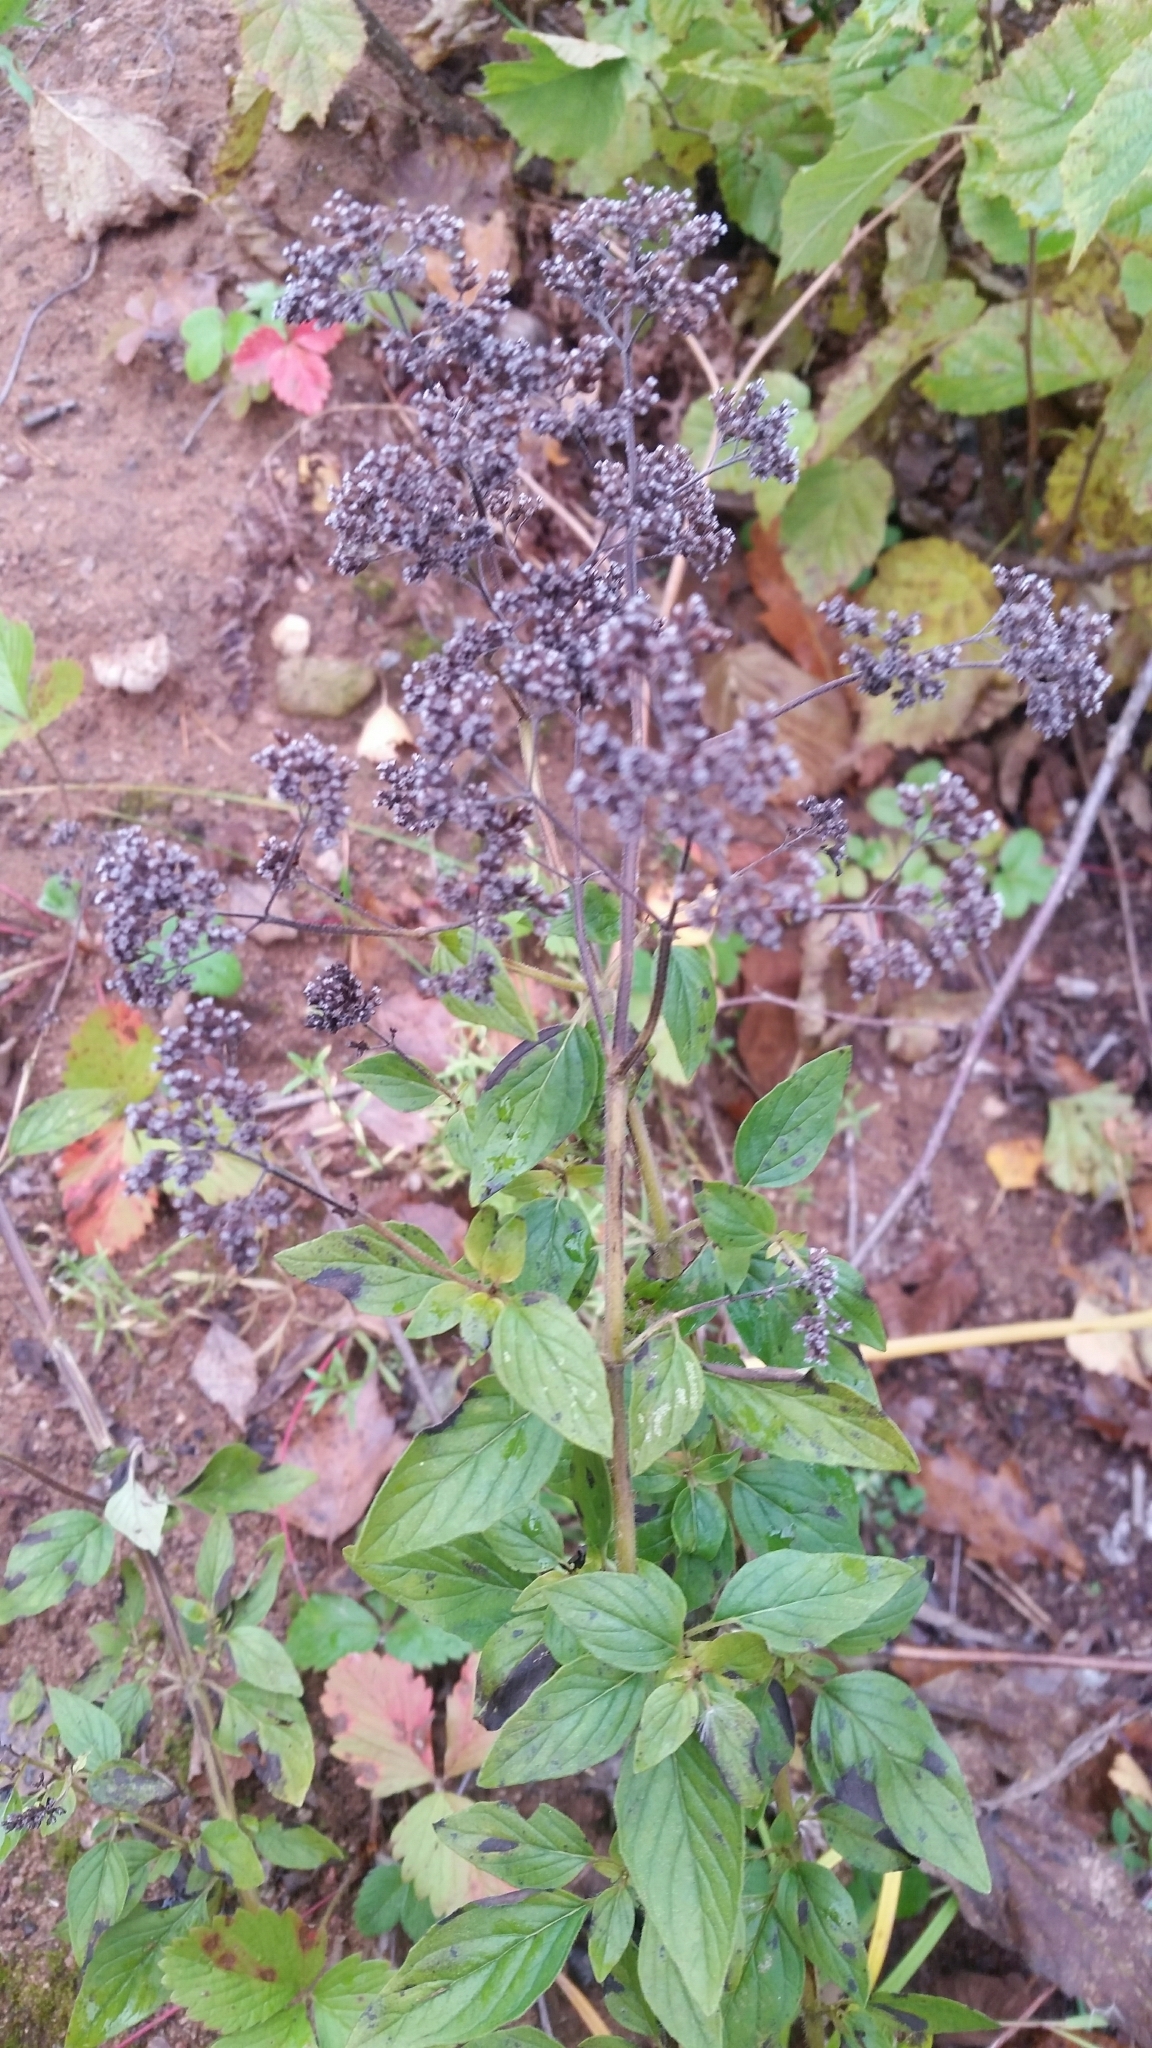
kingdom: Plantae
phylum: Tracheophyta
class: Magnoliopsida
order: Lamiales
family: Lamiaceae
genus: Origanum
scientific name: Origanum vulgare
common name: Wild marjoram
